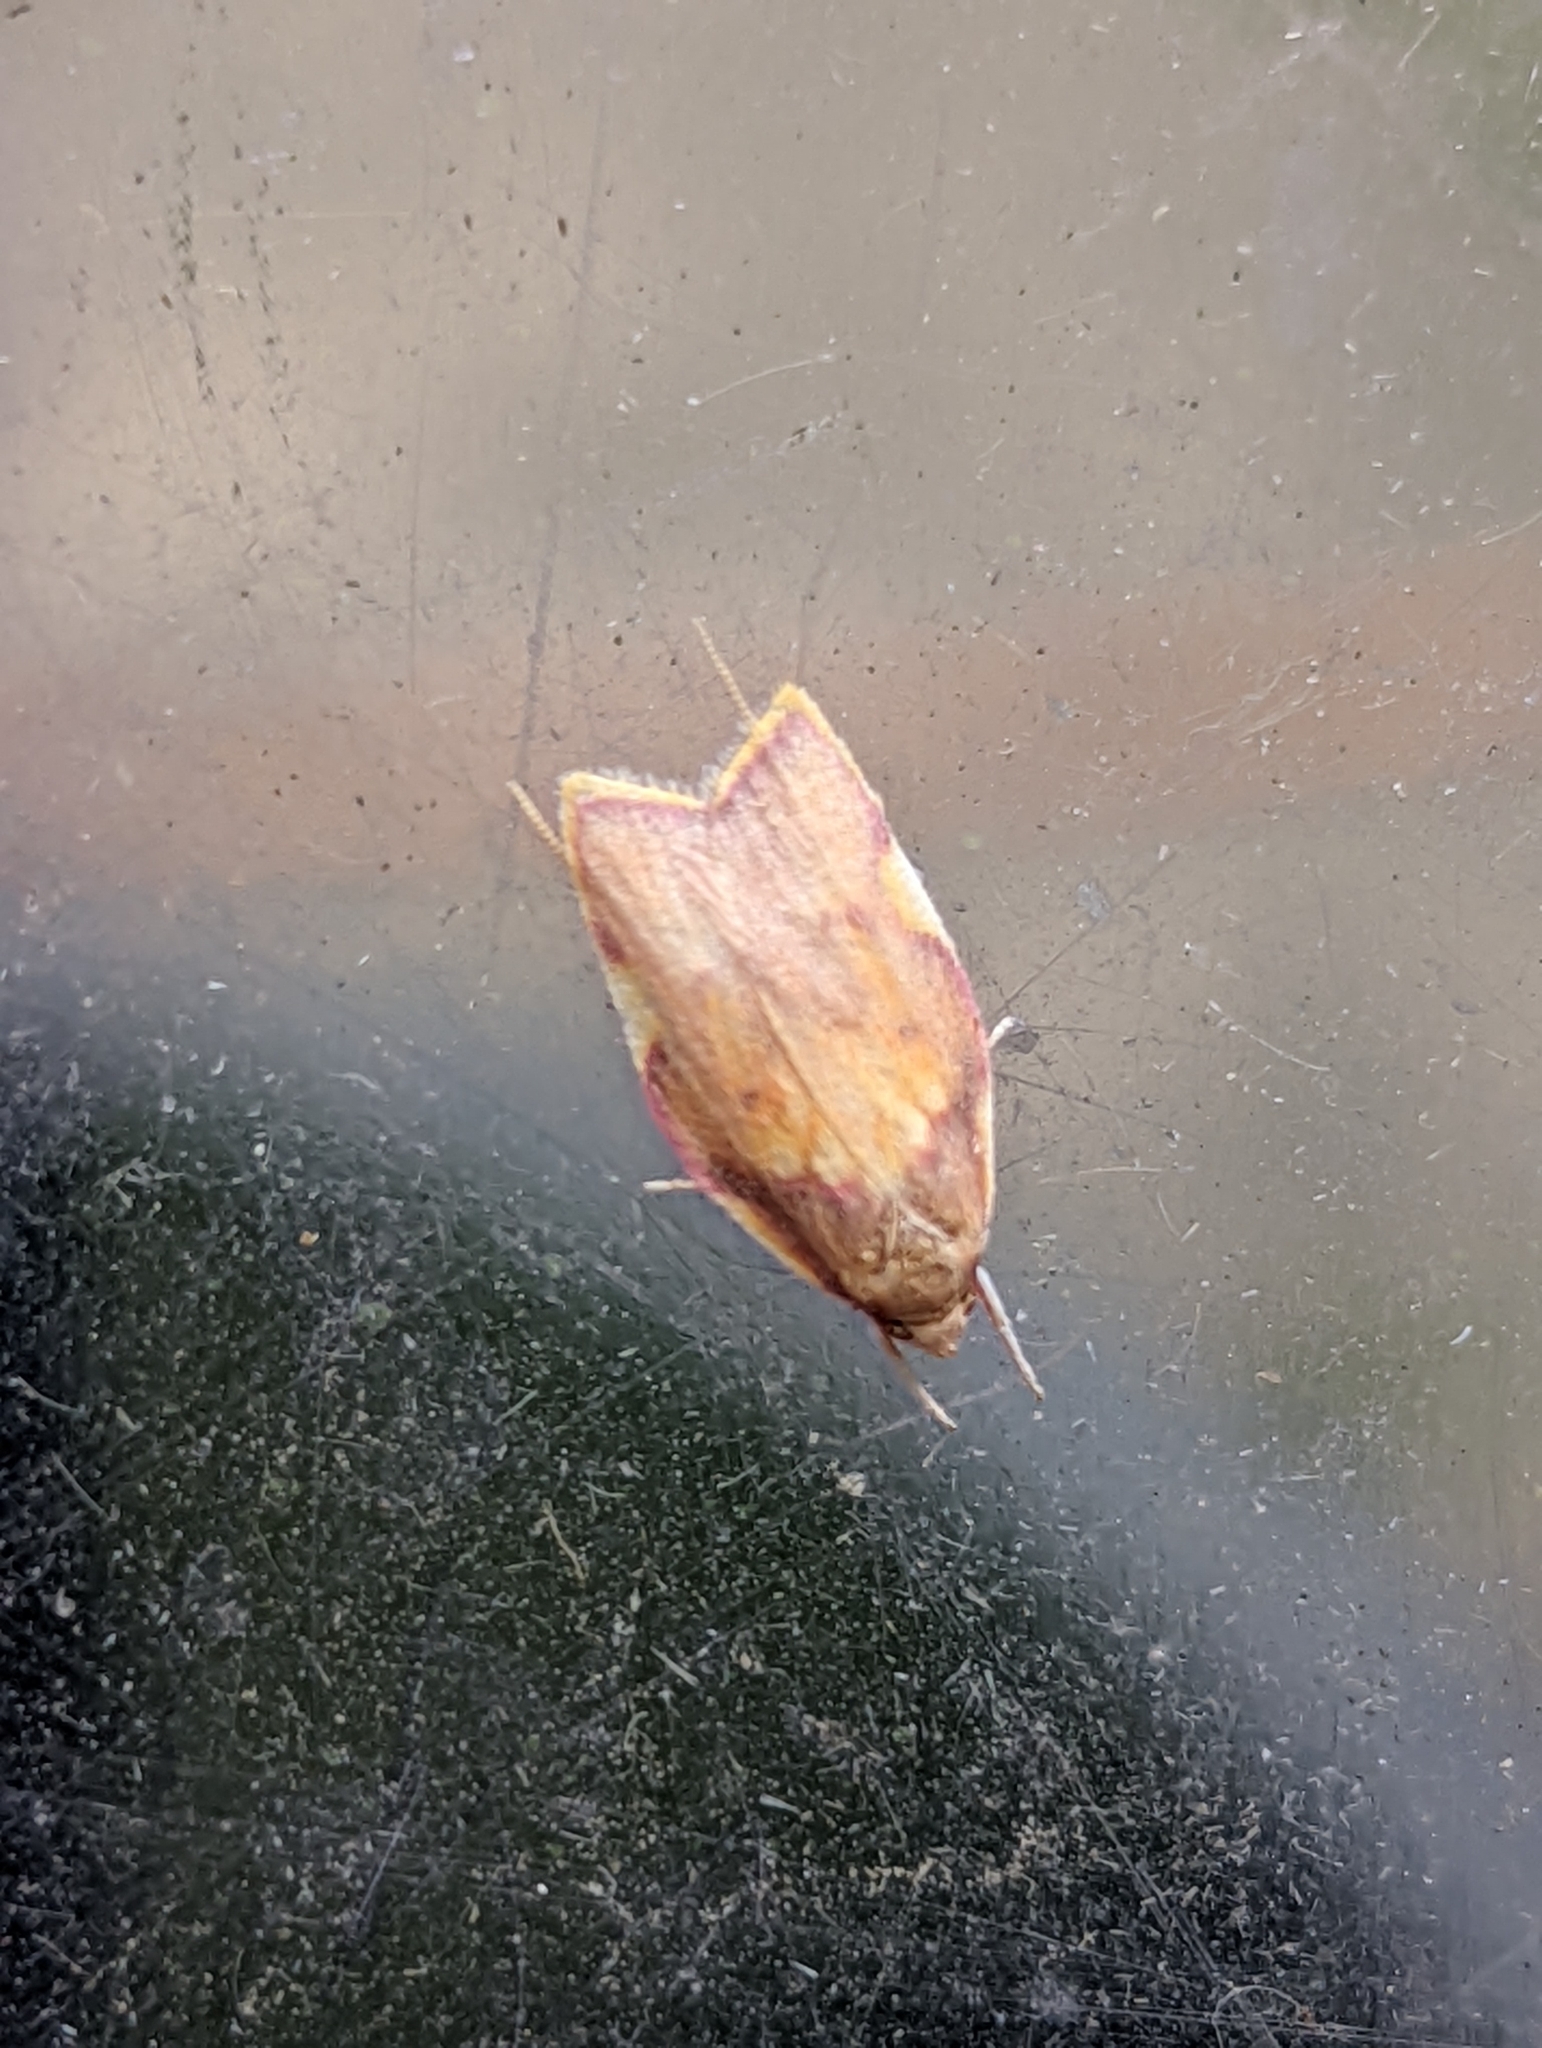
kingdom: Animalia
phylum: Arthropoda
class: Insecta
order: Lepidoptera
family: Peleopodidae
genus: Carcina
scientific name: Carcina quercana
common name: Moth
